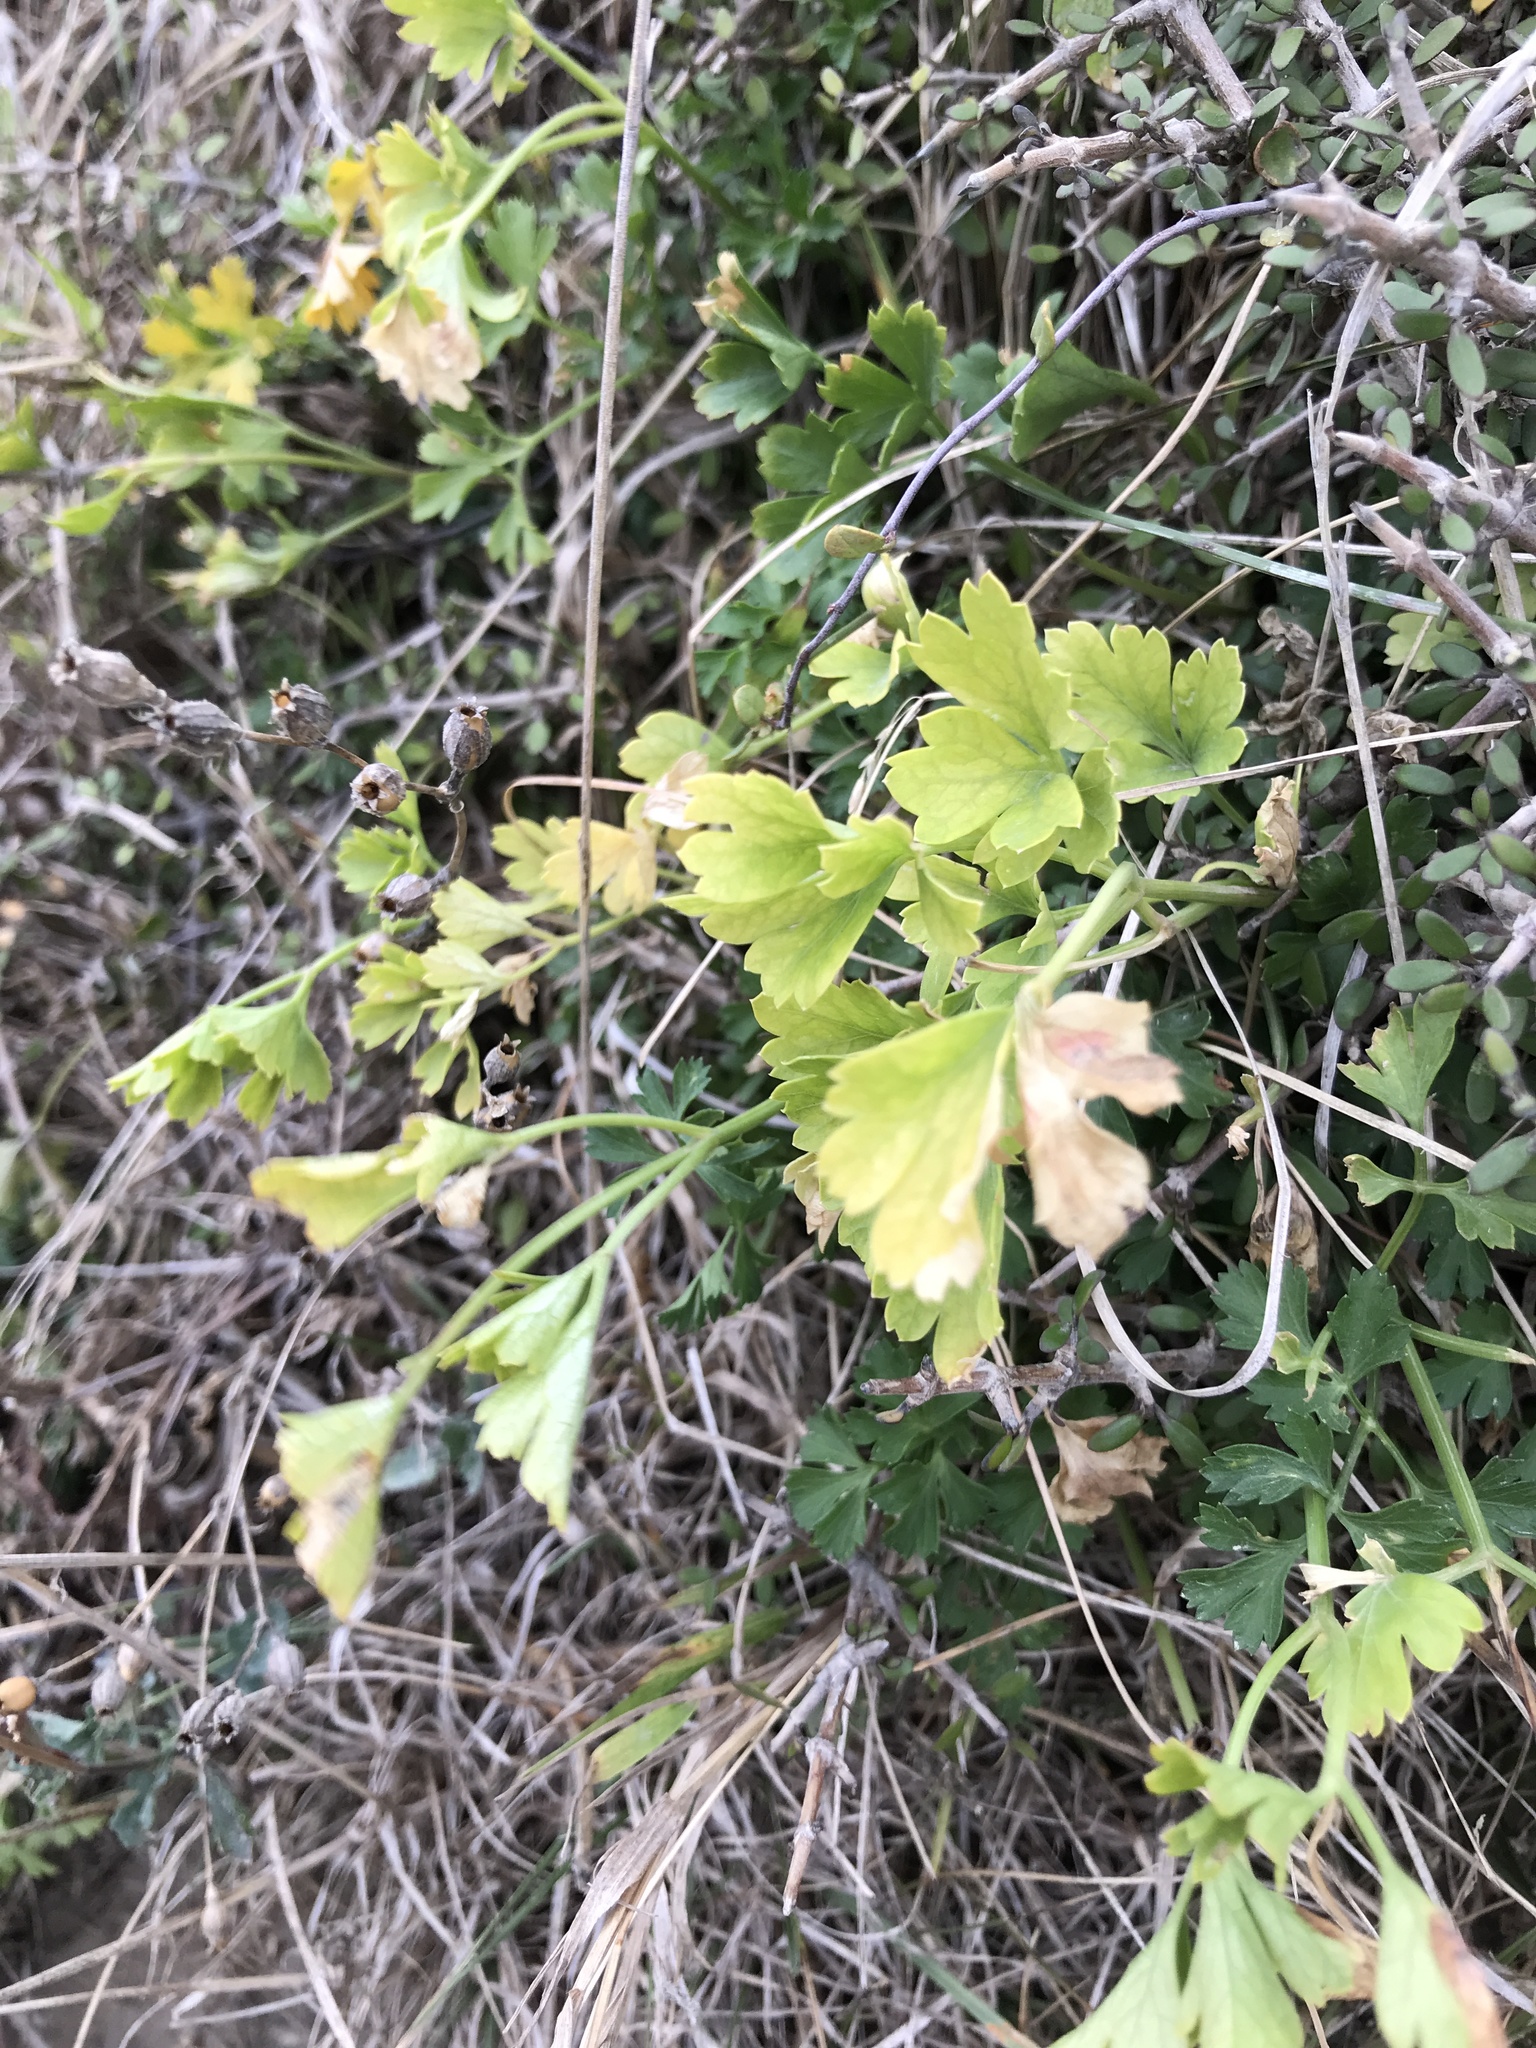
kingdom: Plantae
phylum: Tracheophyta
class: Magnoliopsida
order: Apiales
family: Apiaceae
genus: Apium
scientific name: Apium prostratum
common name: Prostrate marshwort
